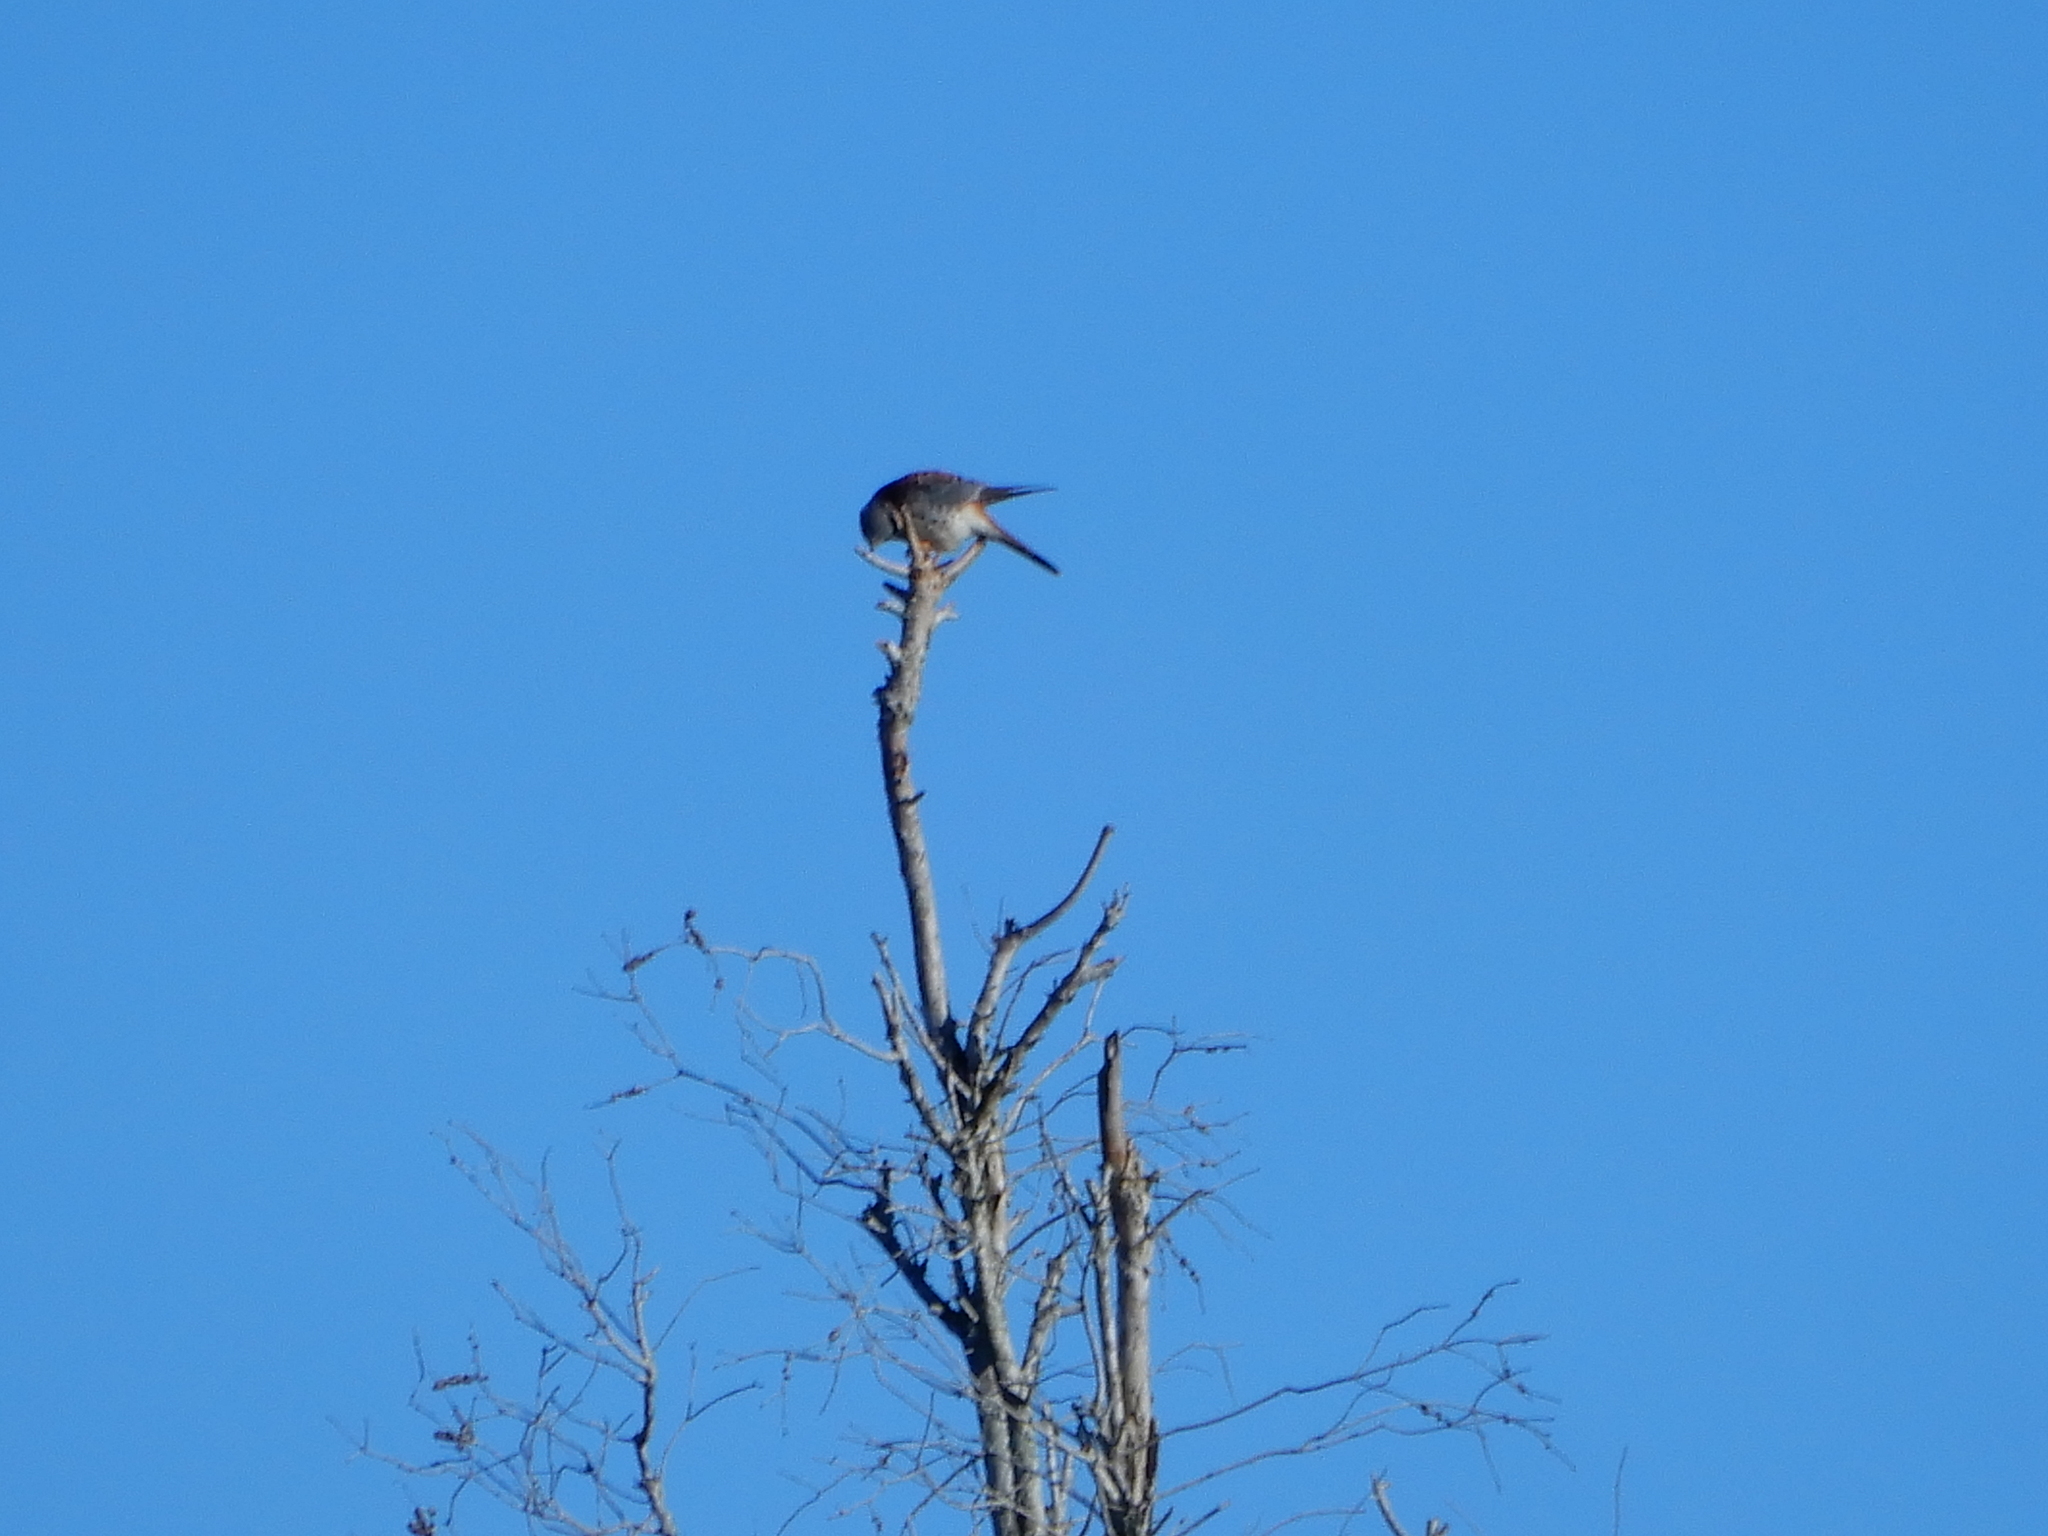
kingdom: Animalia
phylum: Chordata
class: Aves
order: Falconiformes
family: Falconidae
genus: Falco
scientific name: Falco sparverius
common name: American kestrel
